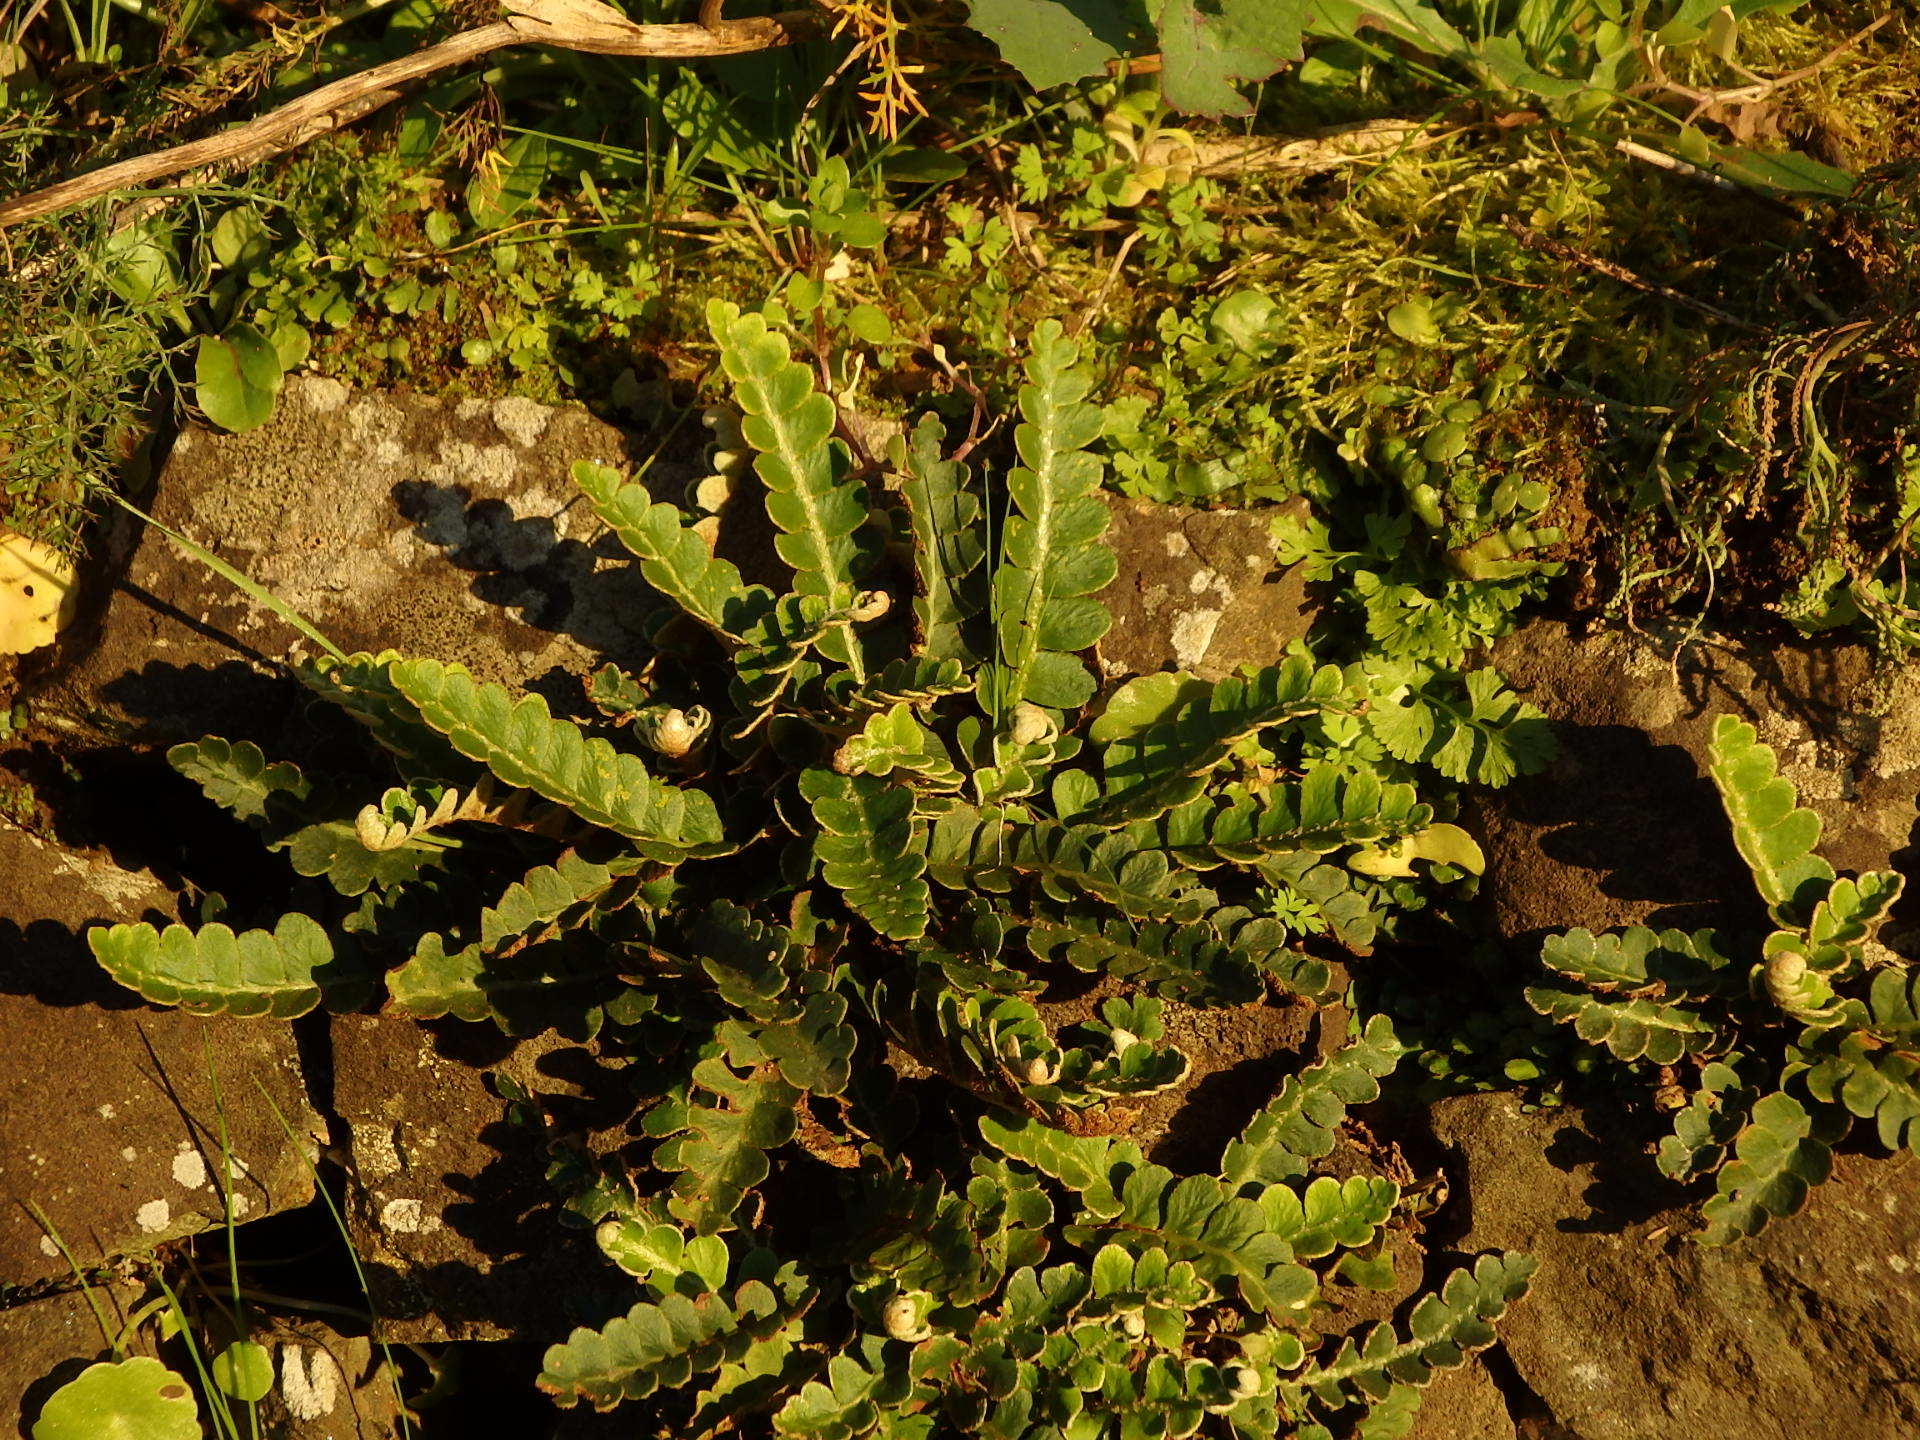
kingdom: Plantae
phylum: Tracheophyta
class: Polypodiopsida
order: Polypodiales
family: Aspleniaceae
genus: Asplenium
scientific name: Asplenium ceterach
